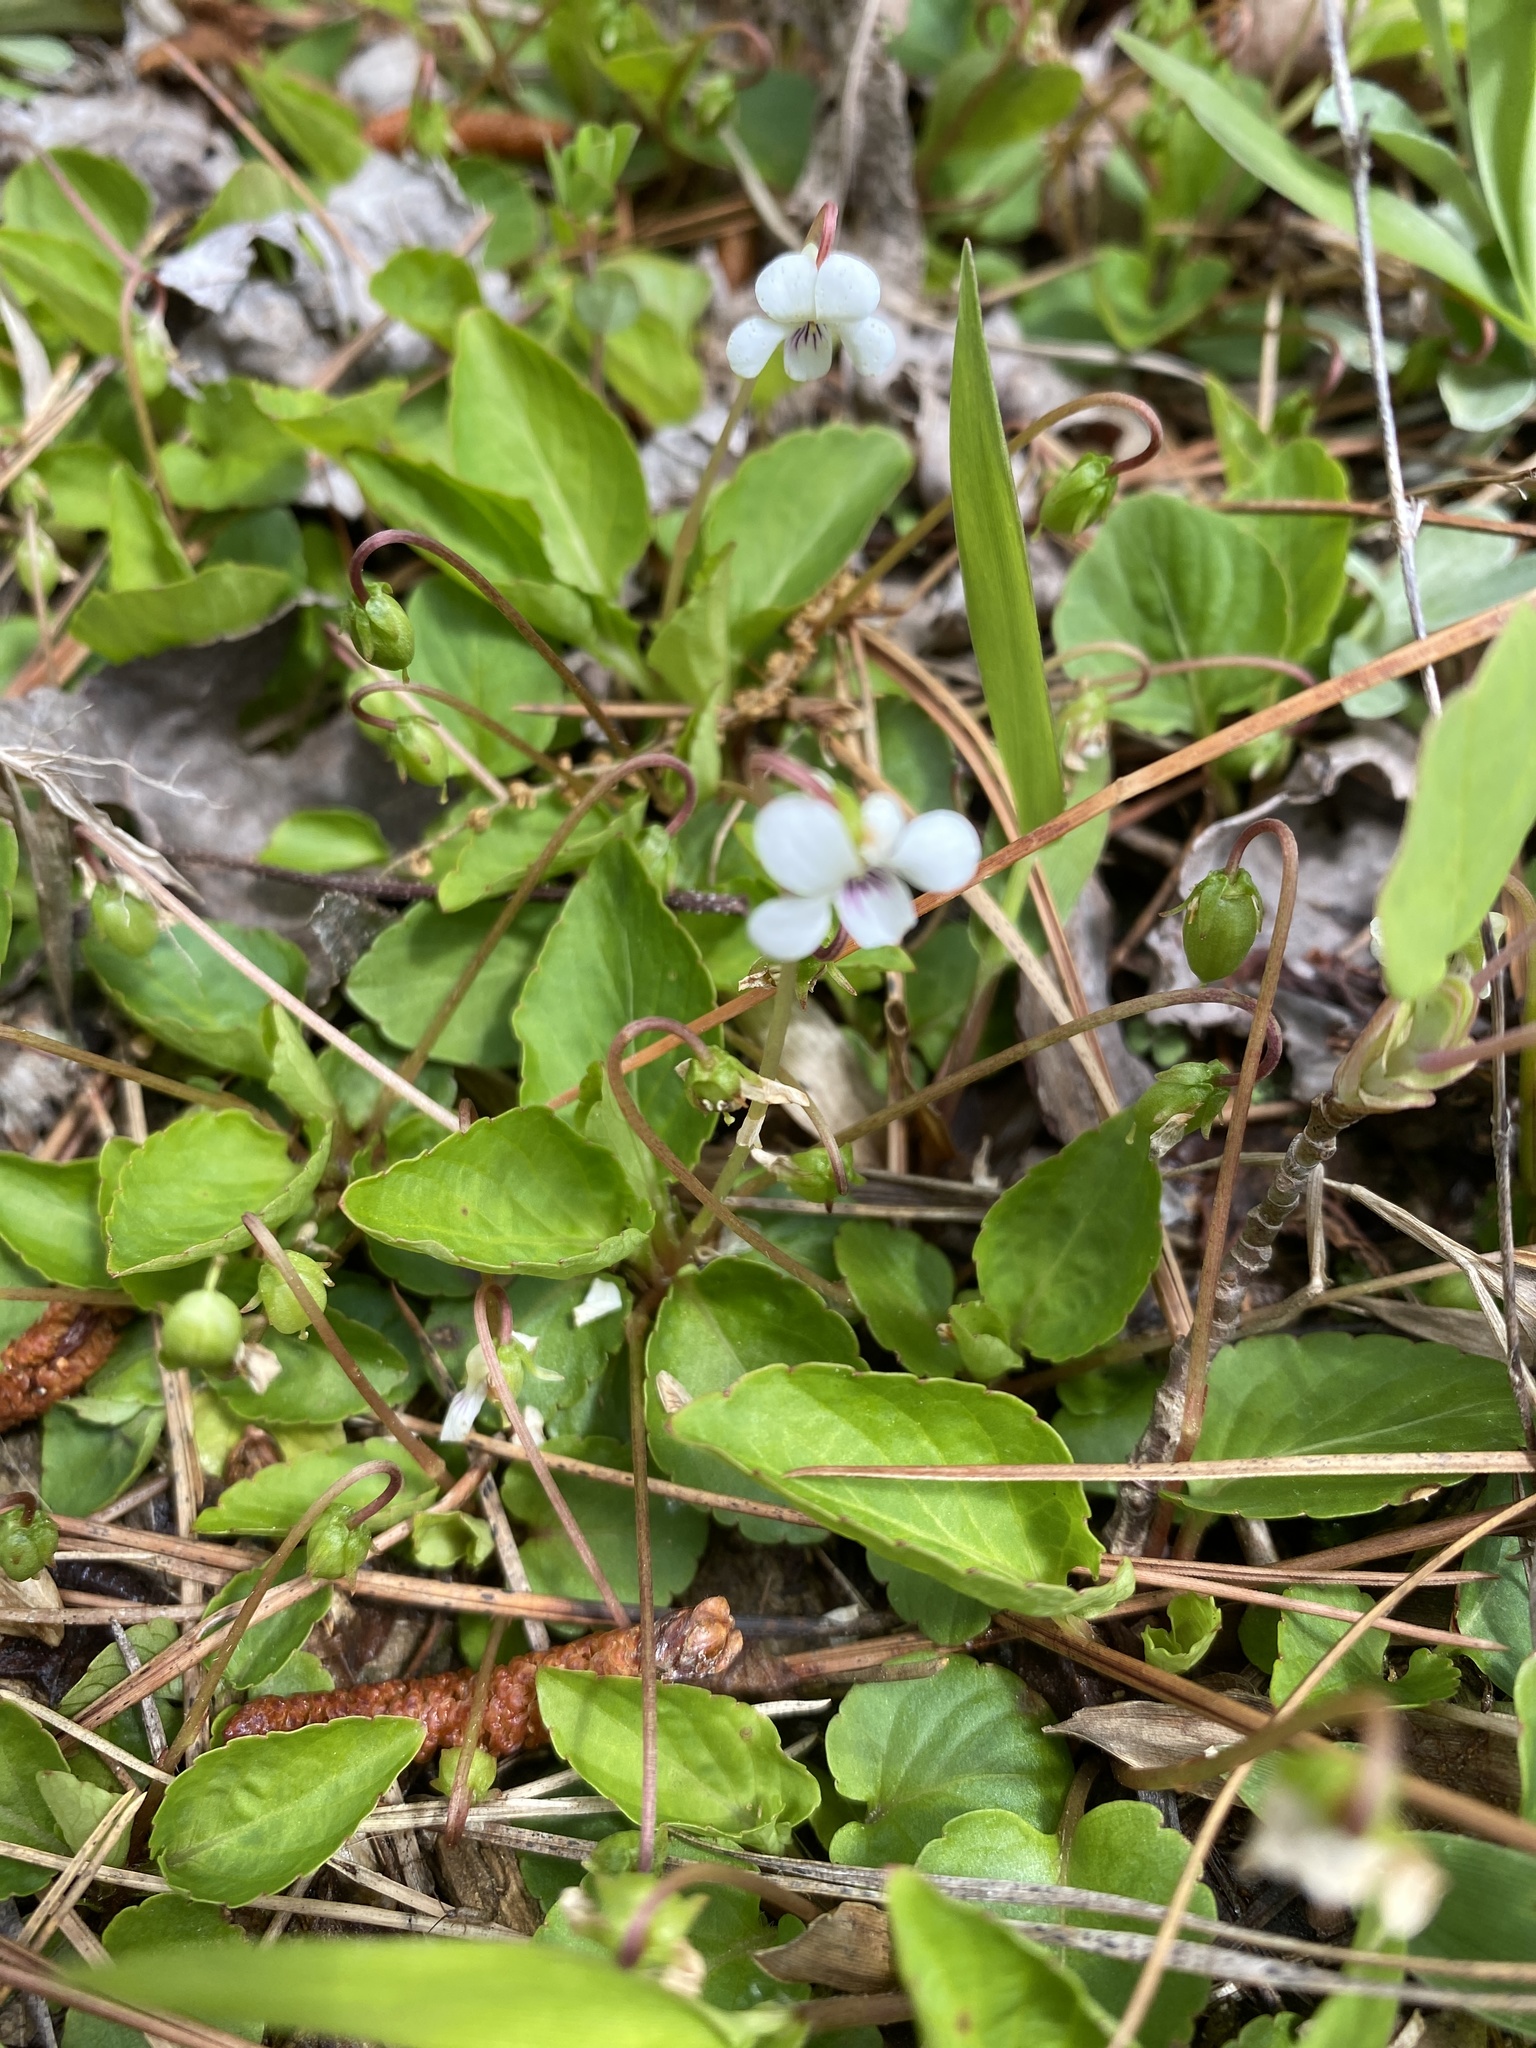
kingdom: Plantae
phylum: Tracheophyta
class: Magnoliopsida
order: Malpighiales
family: Violaceae
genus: Viola
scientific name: Viola primulifolia
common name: Primrose-leaf violet
